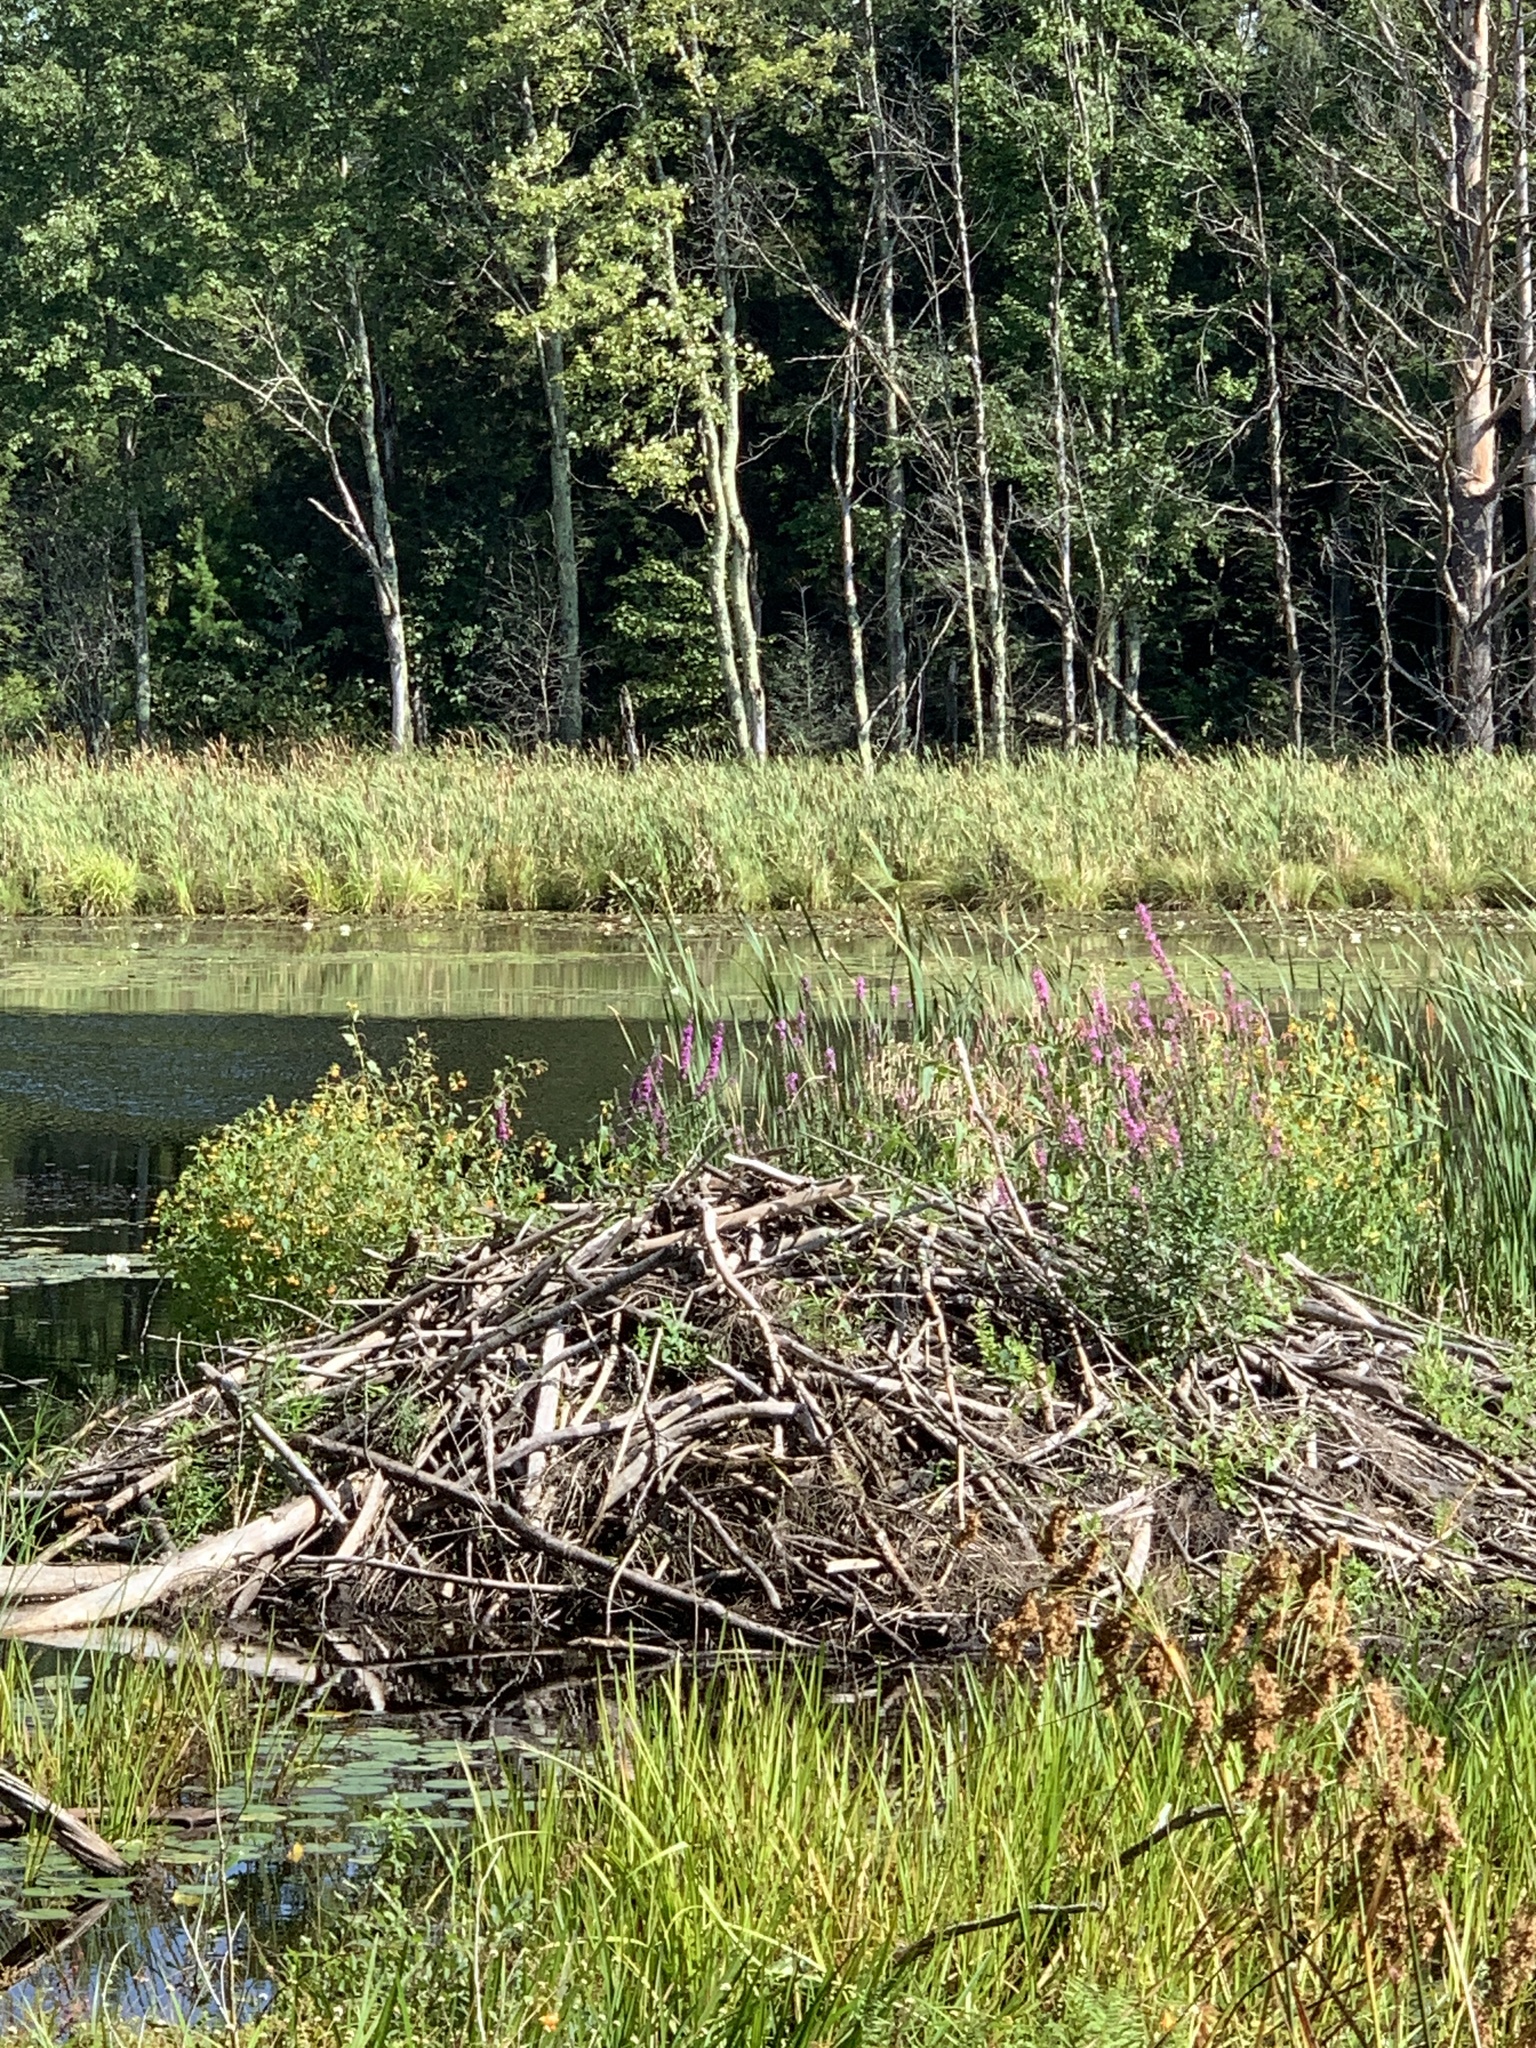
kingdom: Animalia
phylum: Chordata
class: Mammalia
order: Rodentia
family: Castoridae
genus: Castor
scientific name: Castor canadensis
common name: American beaver
